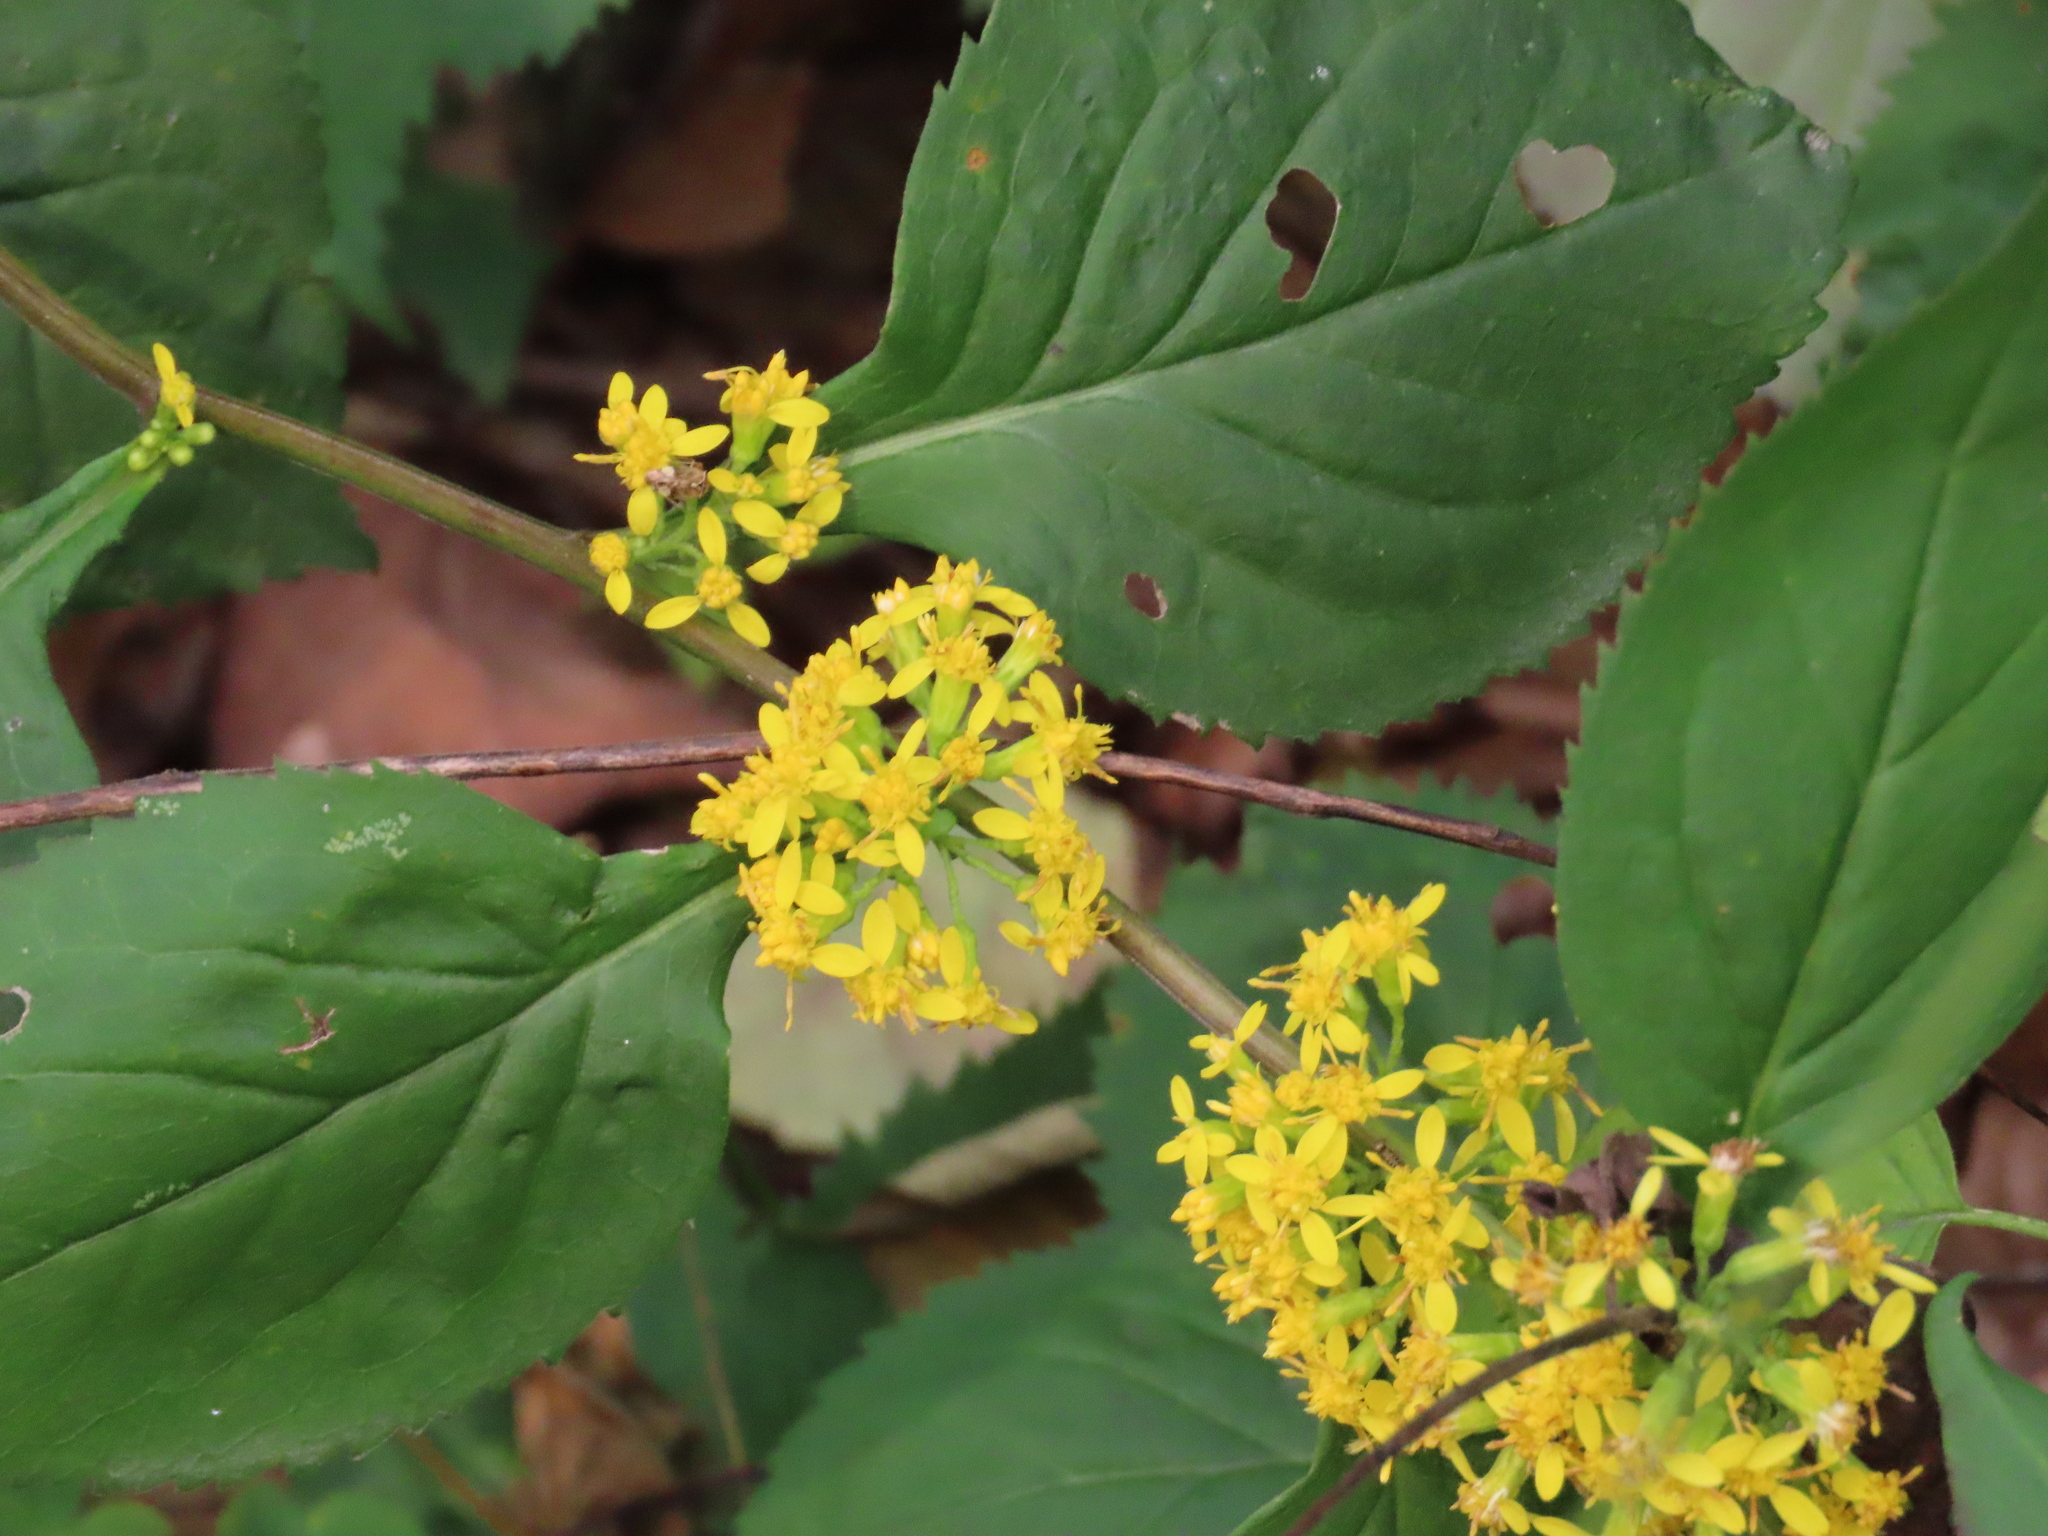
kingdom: Plantae
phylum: Tracheophyta
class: Magnoliopsida
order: Asterales
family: Asteraceae
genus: Solidago
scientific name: Solidago flexicaulis
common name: Zig-zag goldenrod
